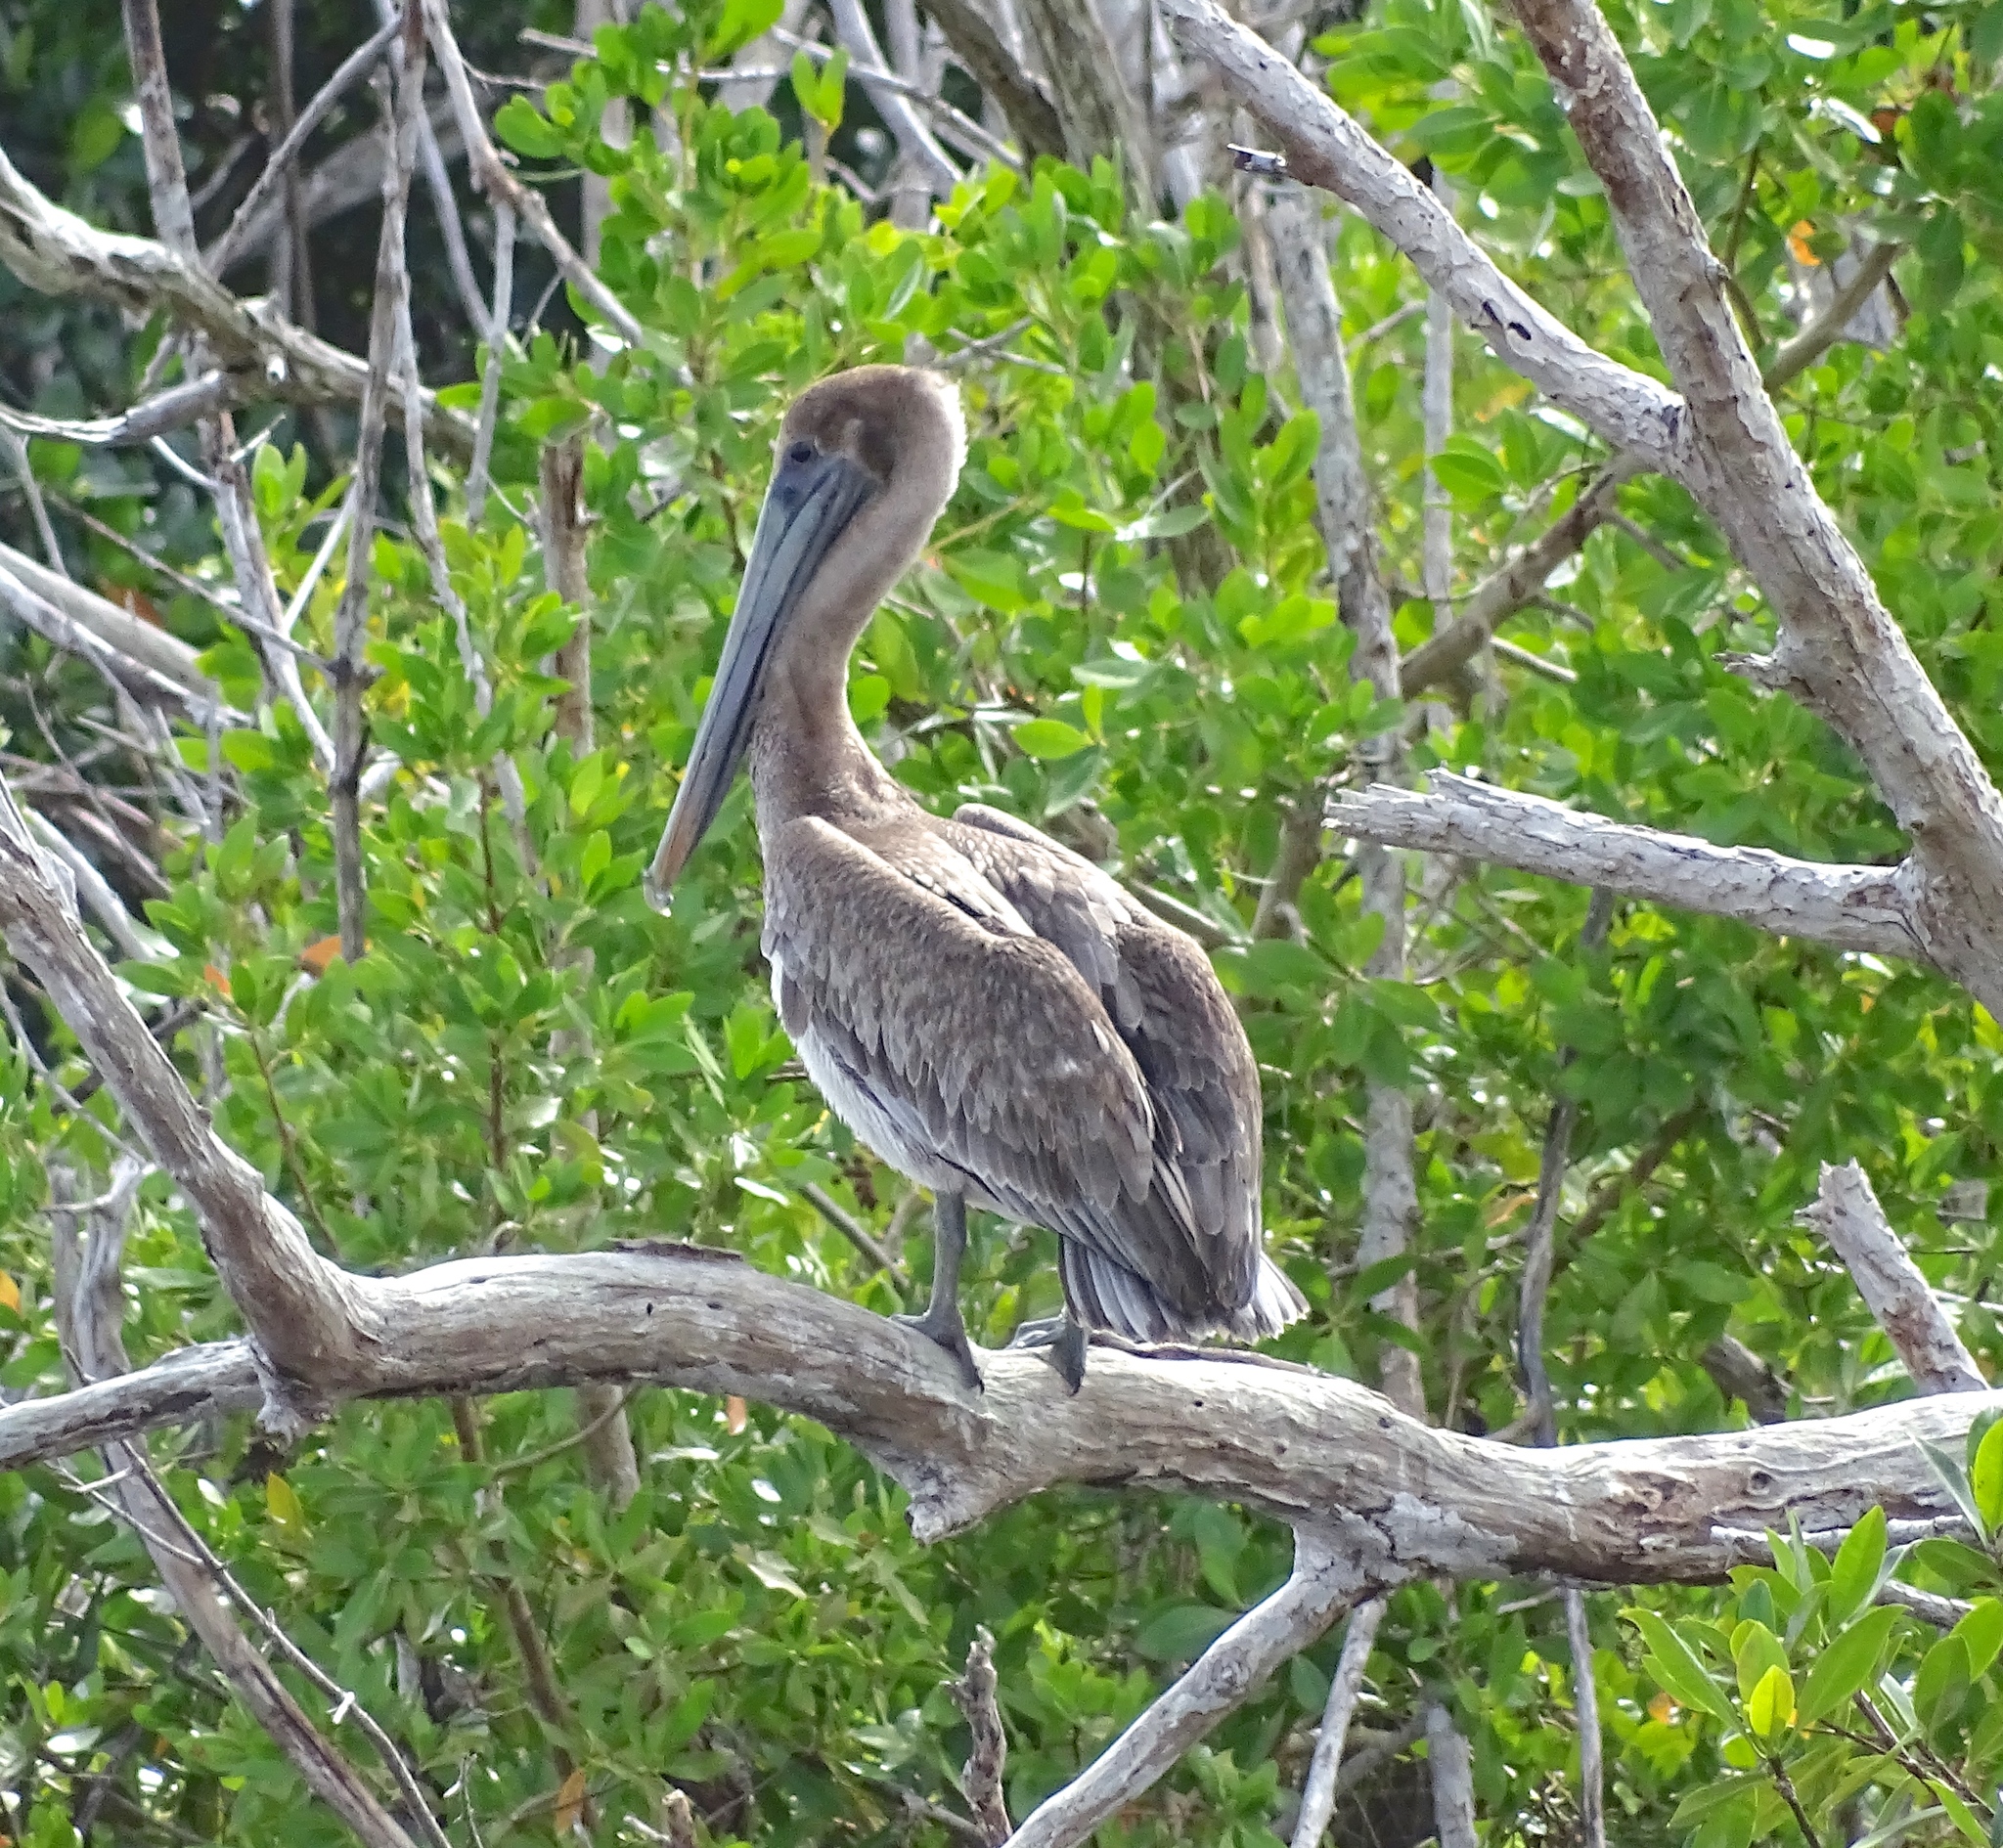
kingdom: Animalia
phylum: Chordata
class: Aves
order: Pelecaniformes
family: Pelecanidae
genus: Pelecanus
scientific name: Pelecanus occidentalis
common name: Brown pelican
